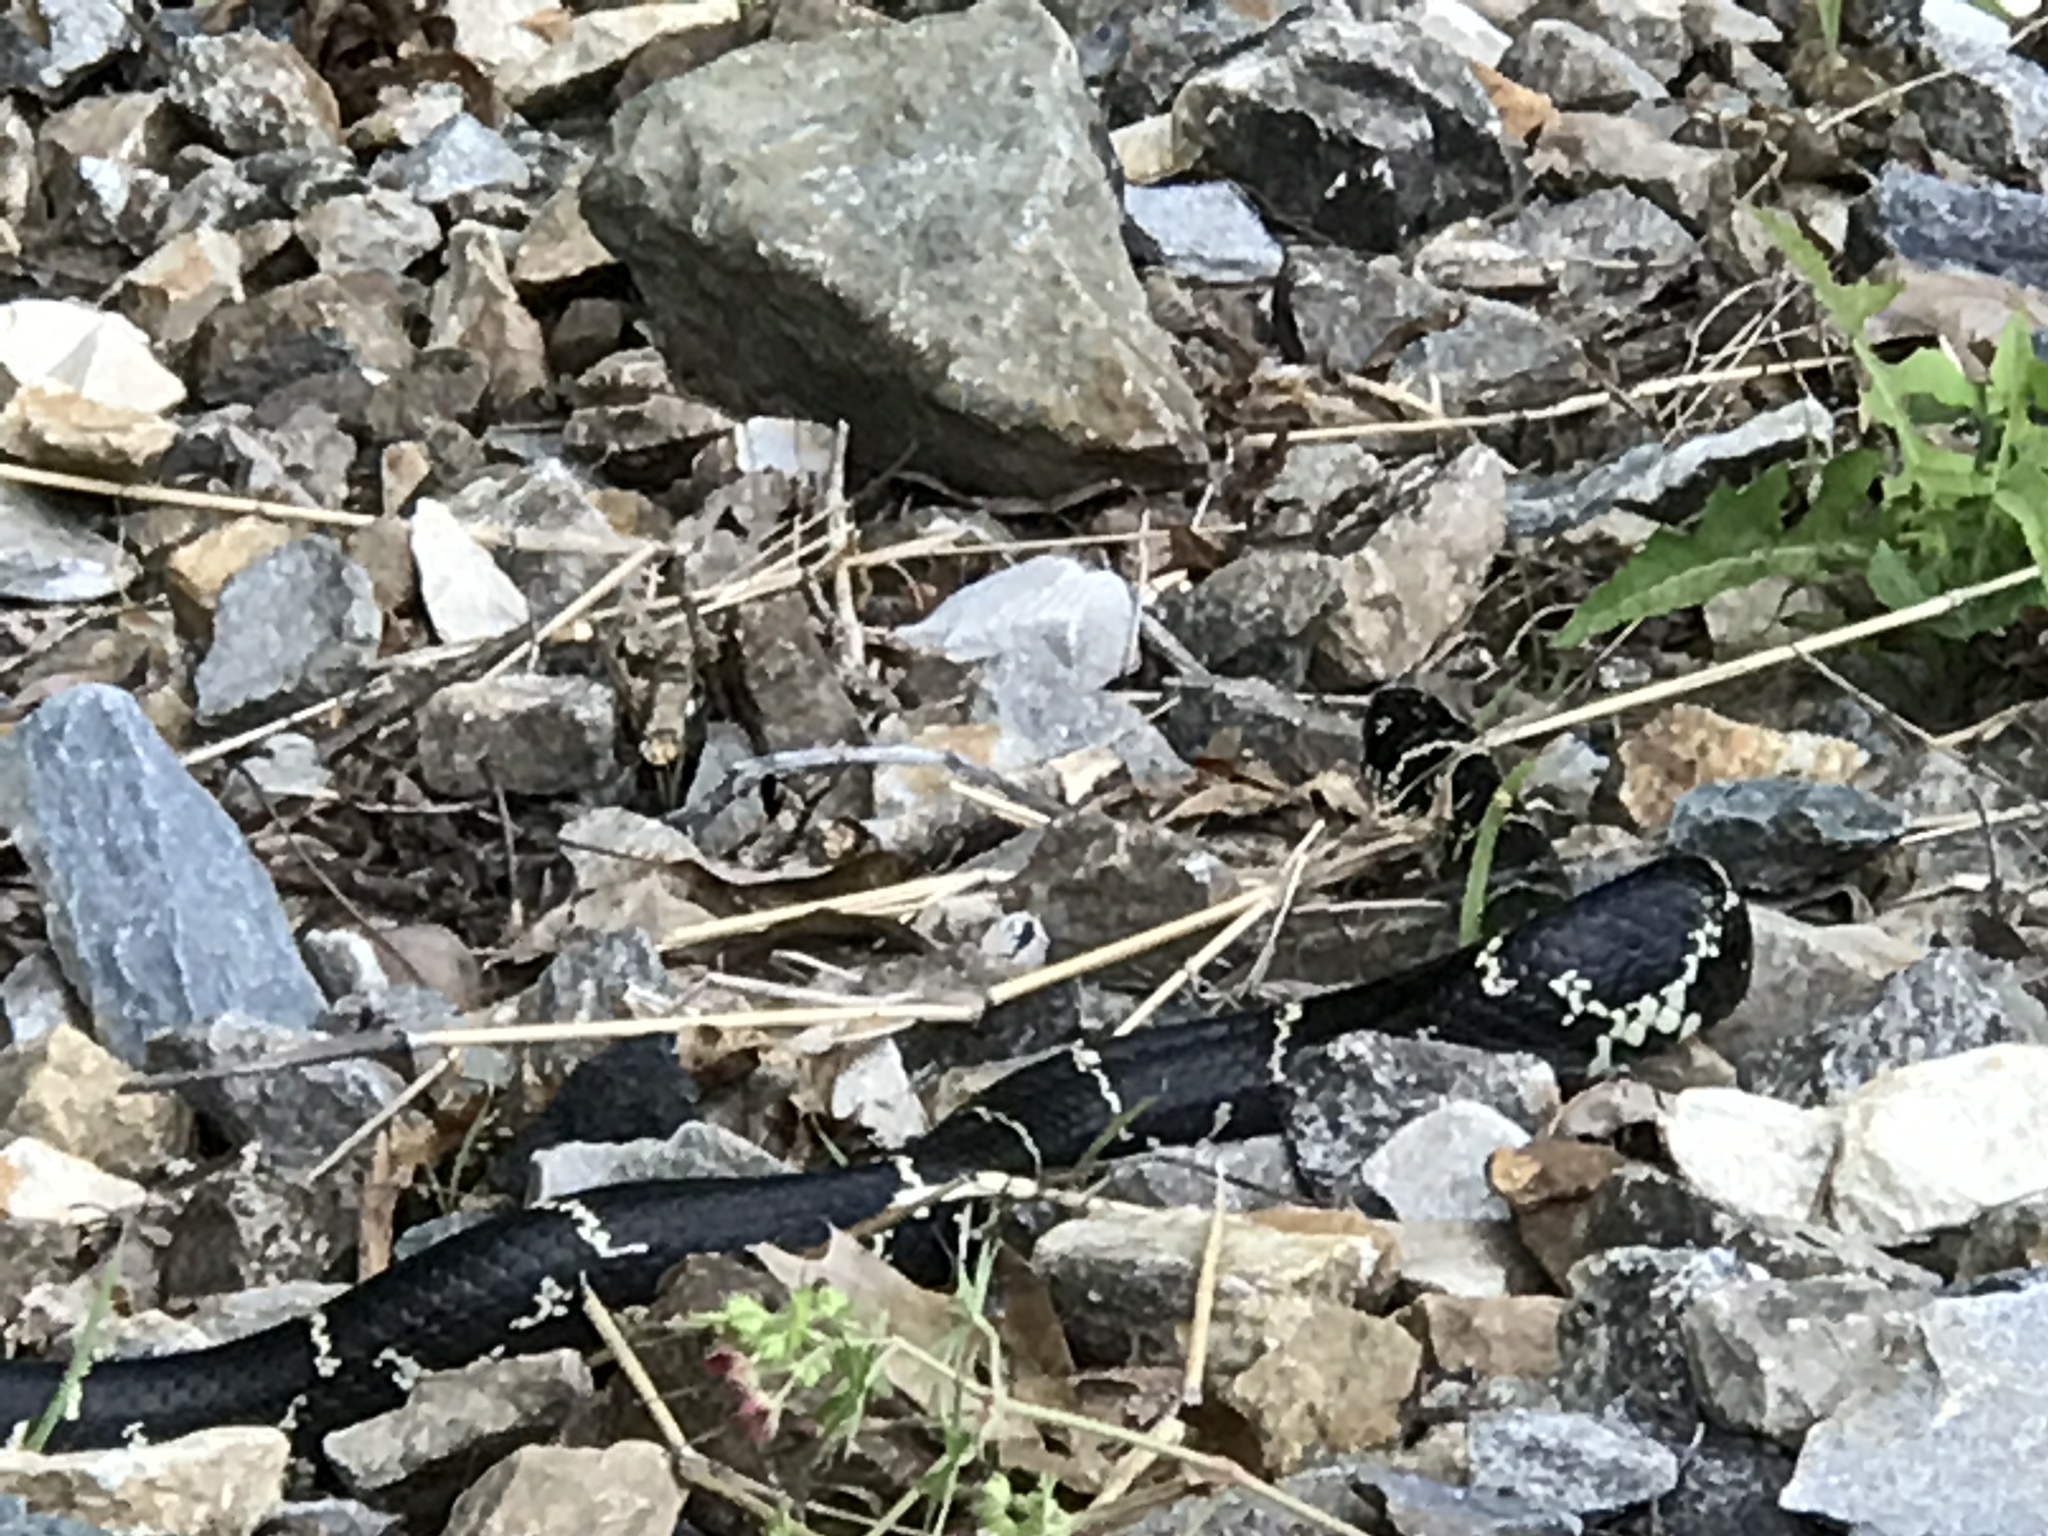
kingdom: Animalia
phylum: Chordata
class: Squamata
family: Colubridae
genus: Lampropeltis
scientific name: Lampropeltis getula
